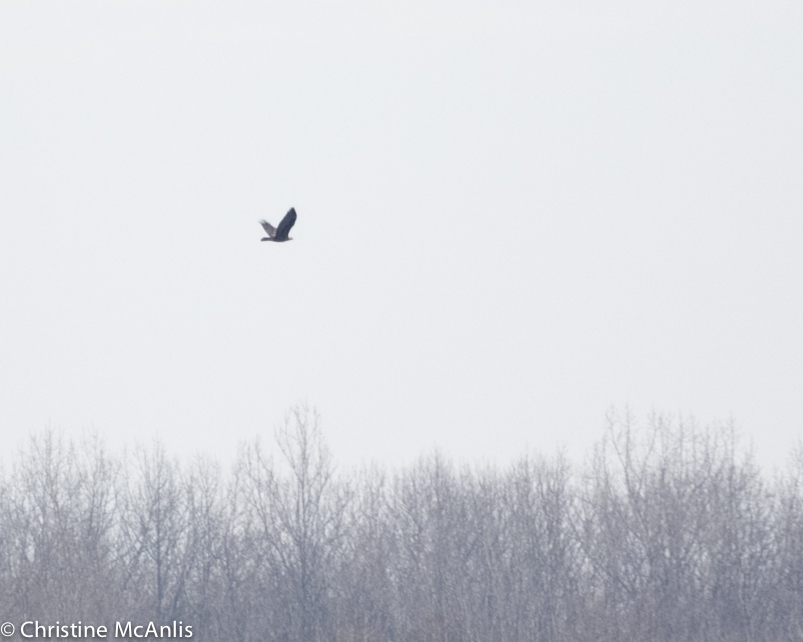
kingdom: Animalia
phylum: Chordata
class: Aves
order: Accipitriformes
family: Accipitridae
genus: Aquila
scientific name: Aquila chrysaetos
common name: Golden eagle
